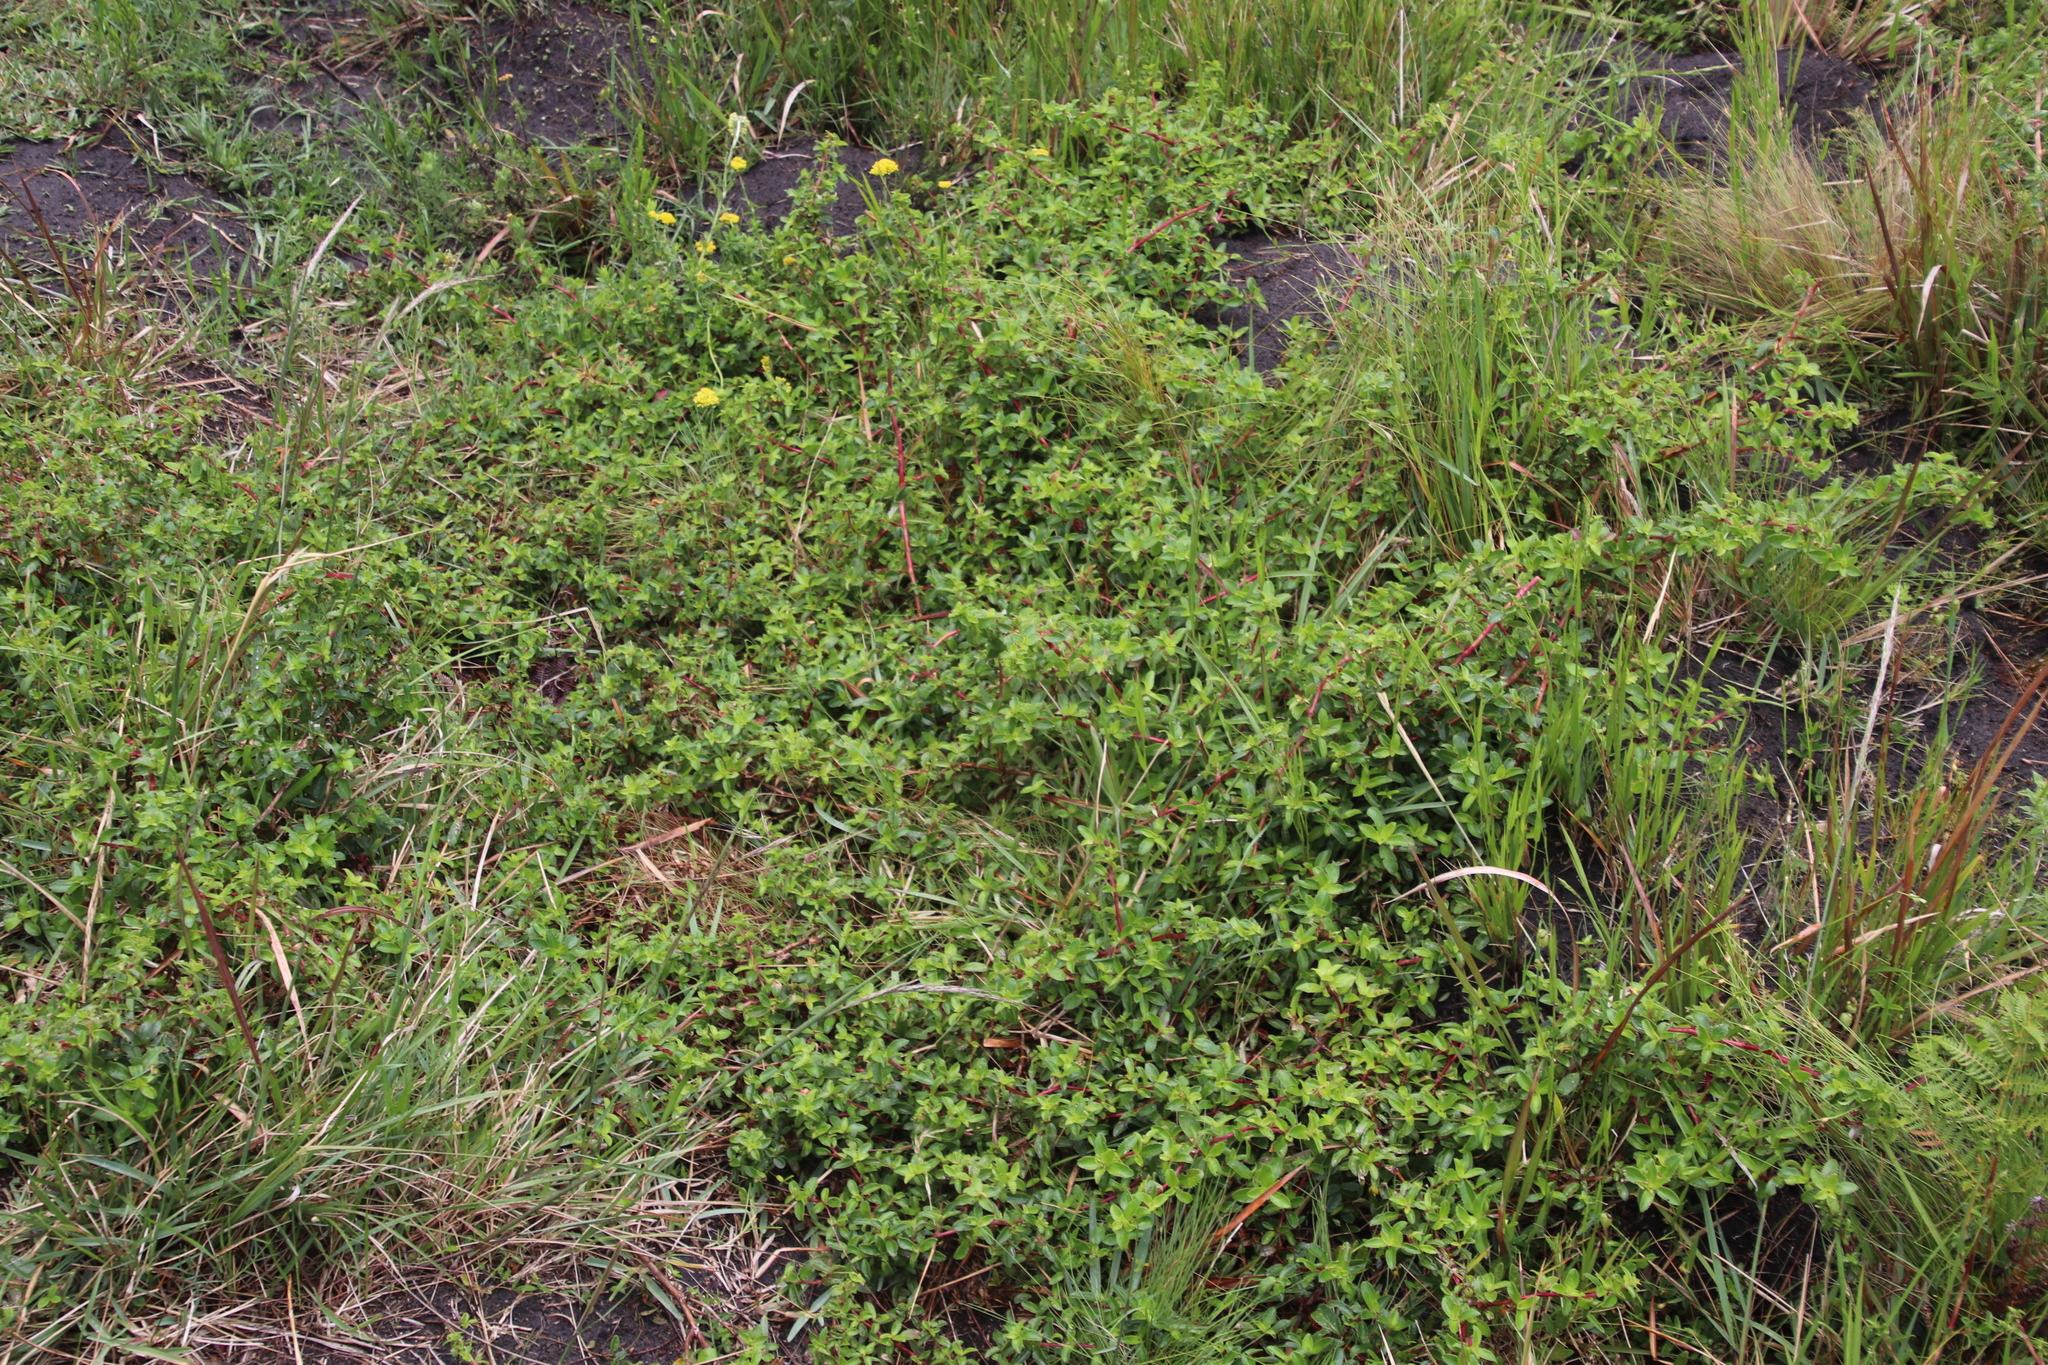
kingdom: Plantae
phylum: Tracheophyta
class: Magnoliopsida
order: Rosales
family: Rosaceae
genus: Cliffortia
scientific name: Cliffortia ferruginea
